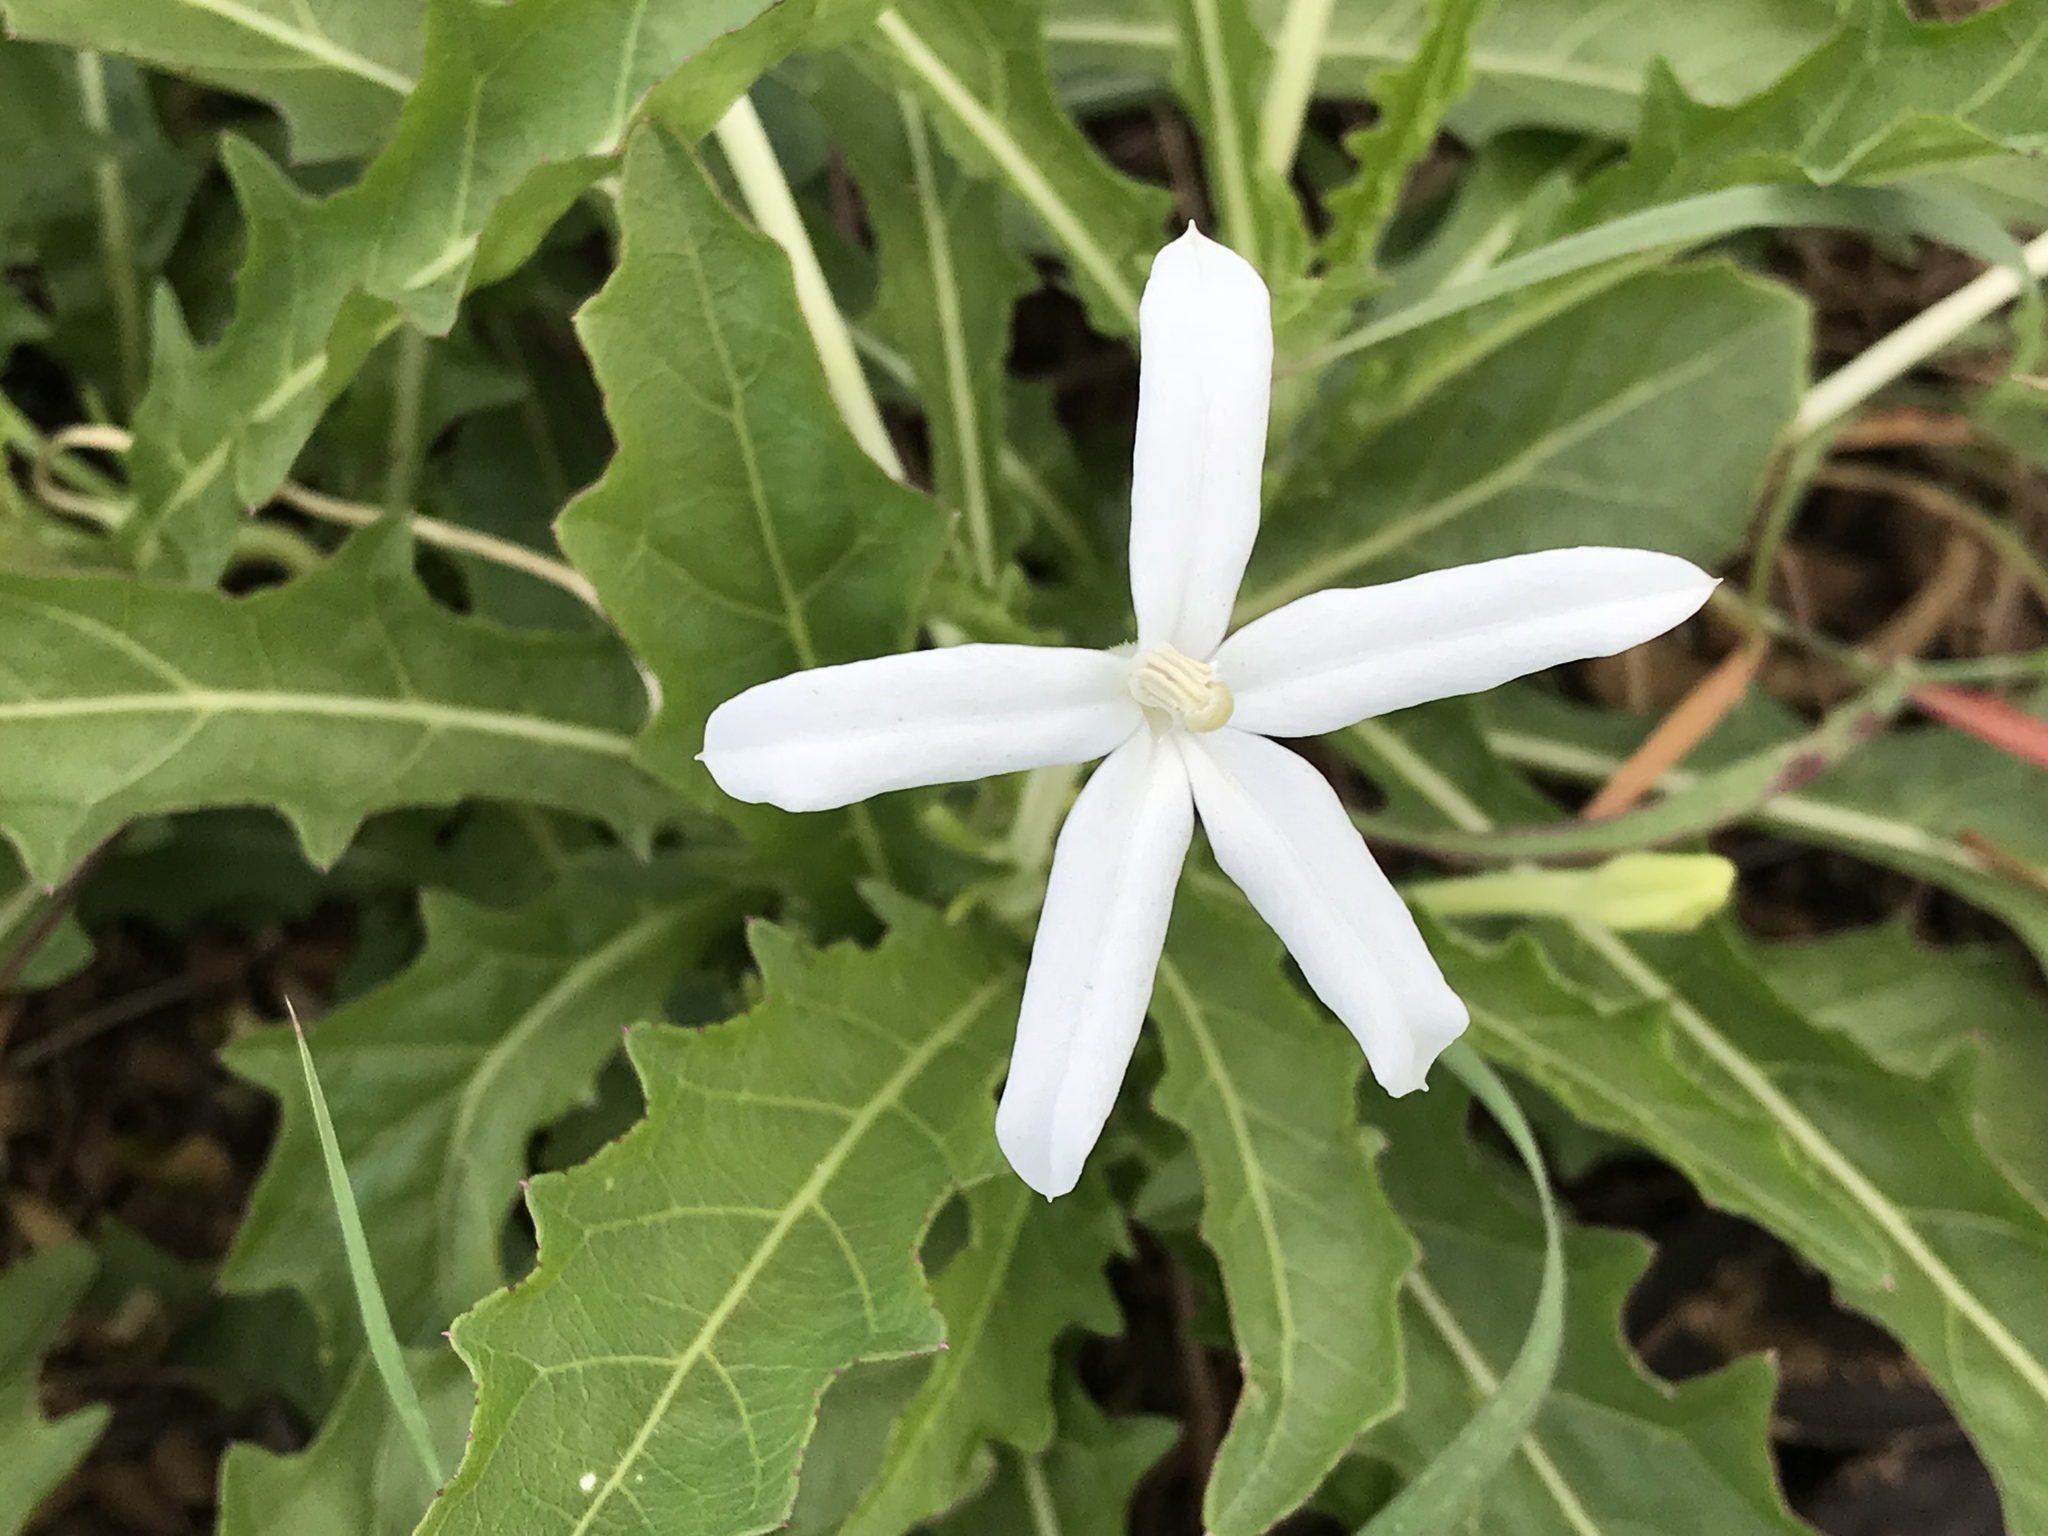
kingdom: Plantae
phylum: Tracheophyta
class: Magnoliopsida
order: Asterales
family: Campanulaceae
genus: Hippobroma
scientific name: Hippobroma longiflora
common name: Madamfate
